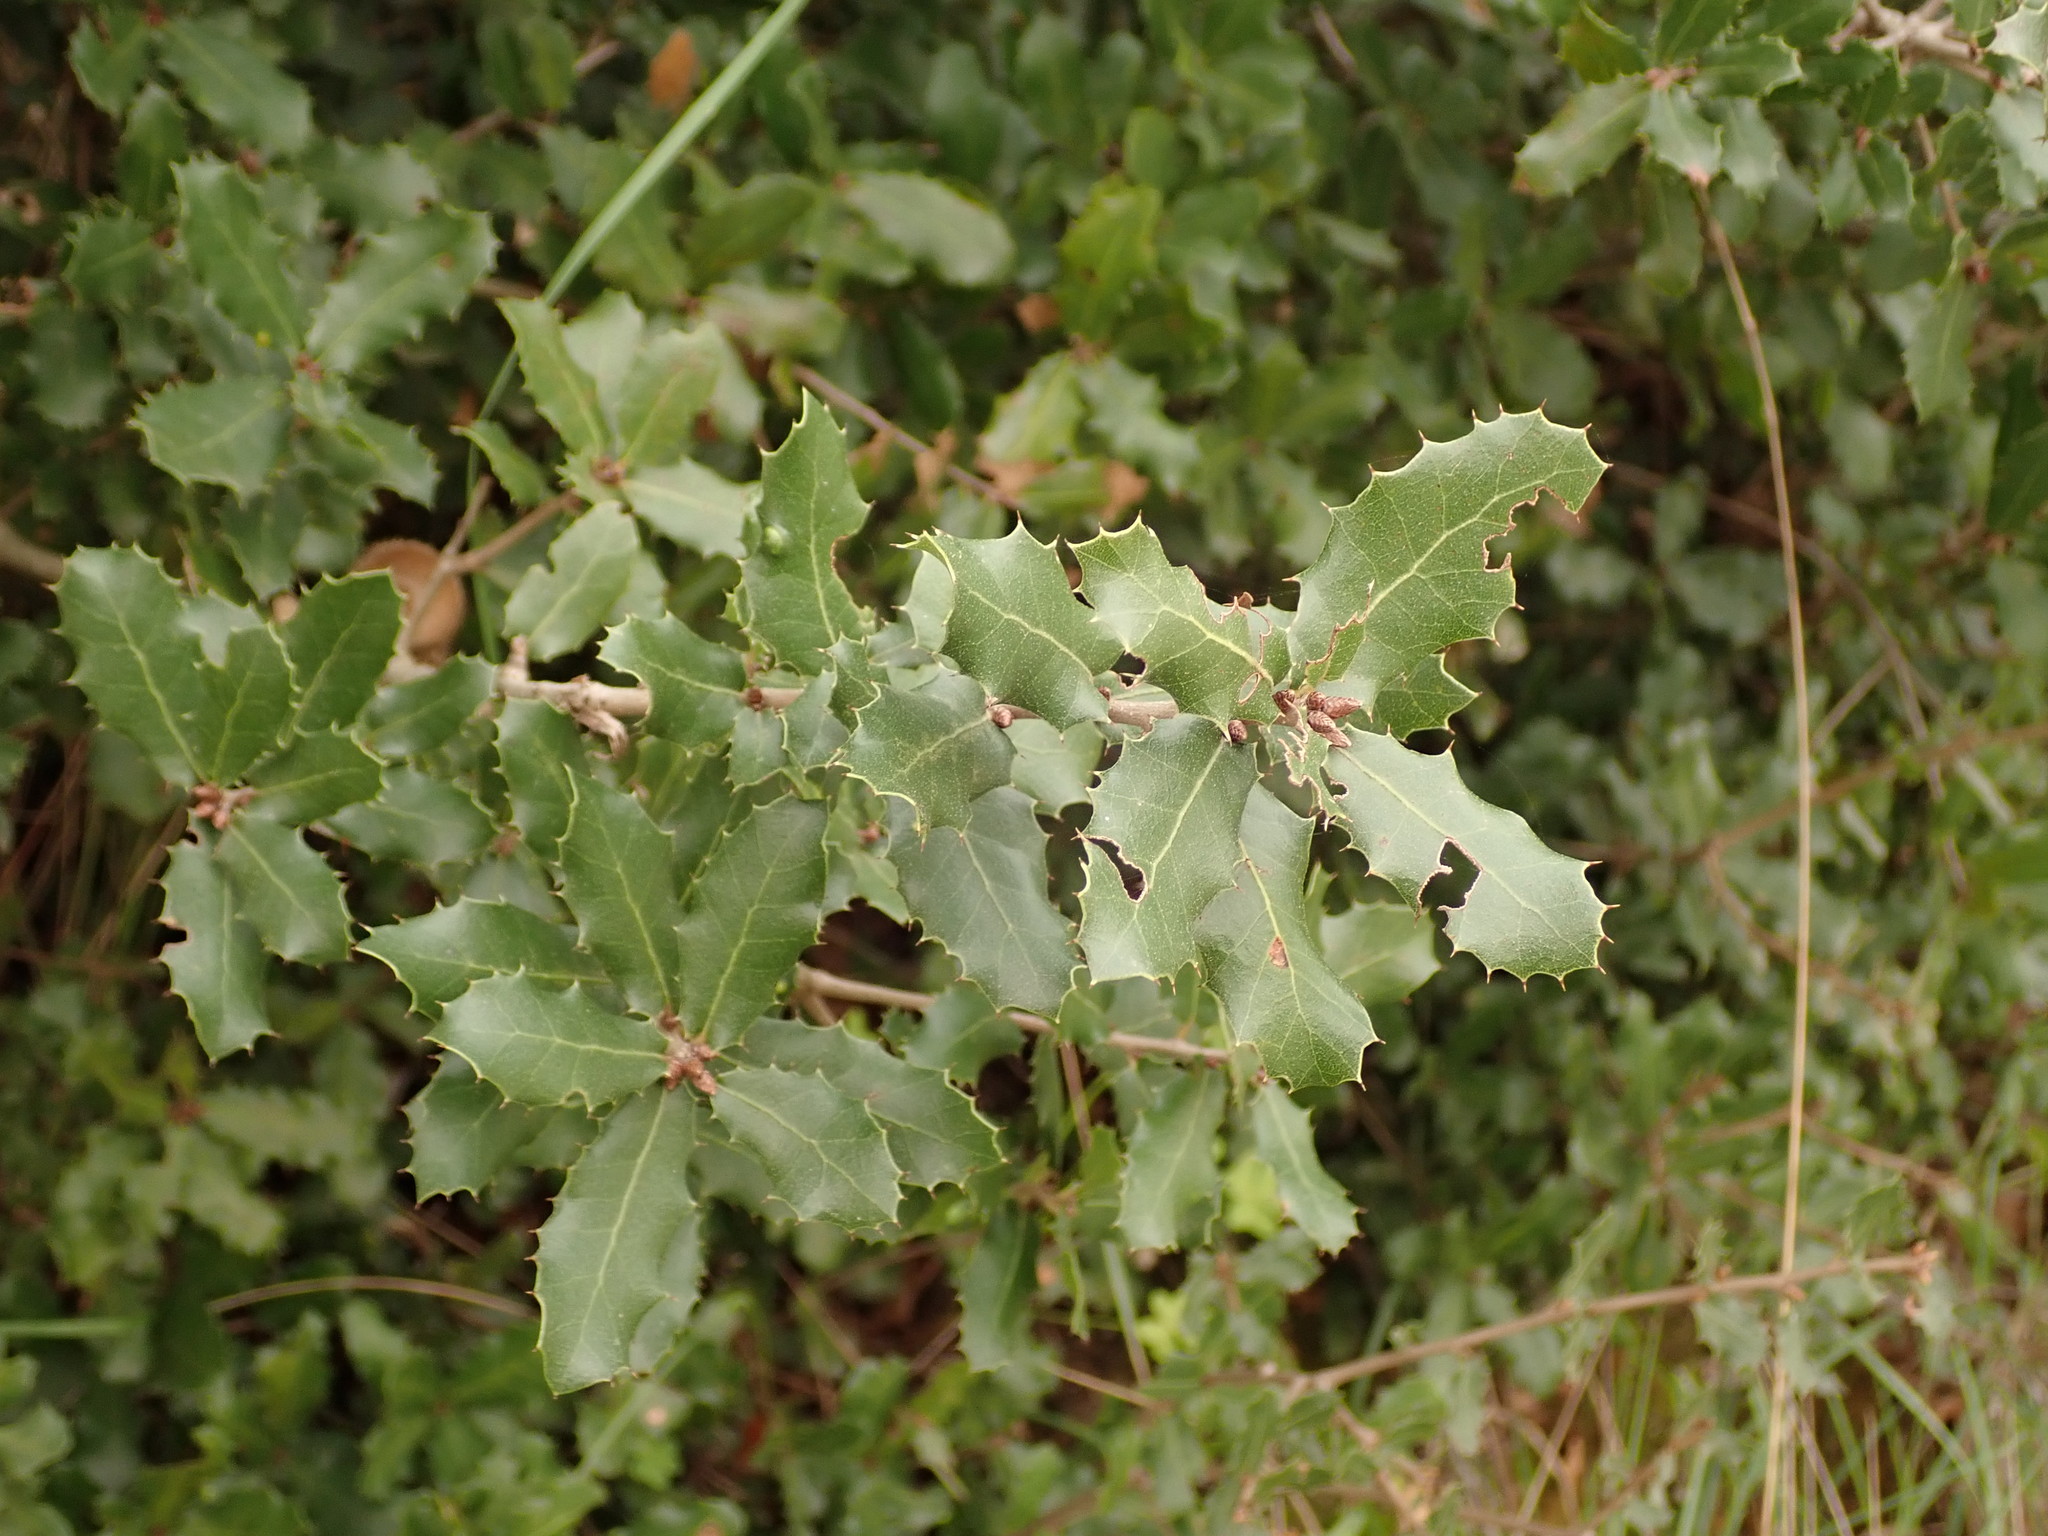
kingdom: Plantae
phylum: Tracheophyta
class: Magnoliopsida
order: Fagales
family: Fagaceae
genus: Quercus
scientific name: Quercus coccifera
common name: Kermes oak
